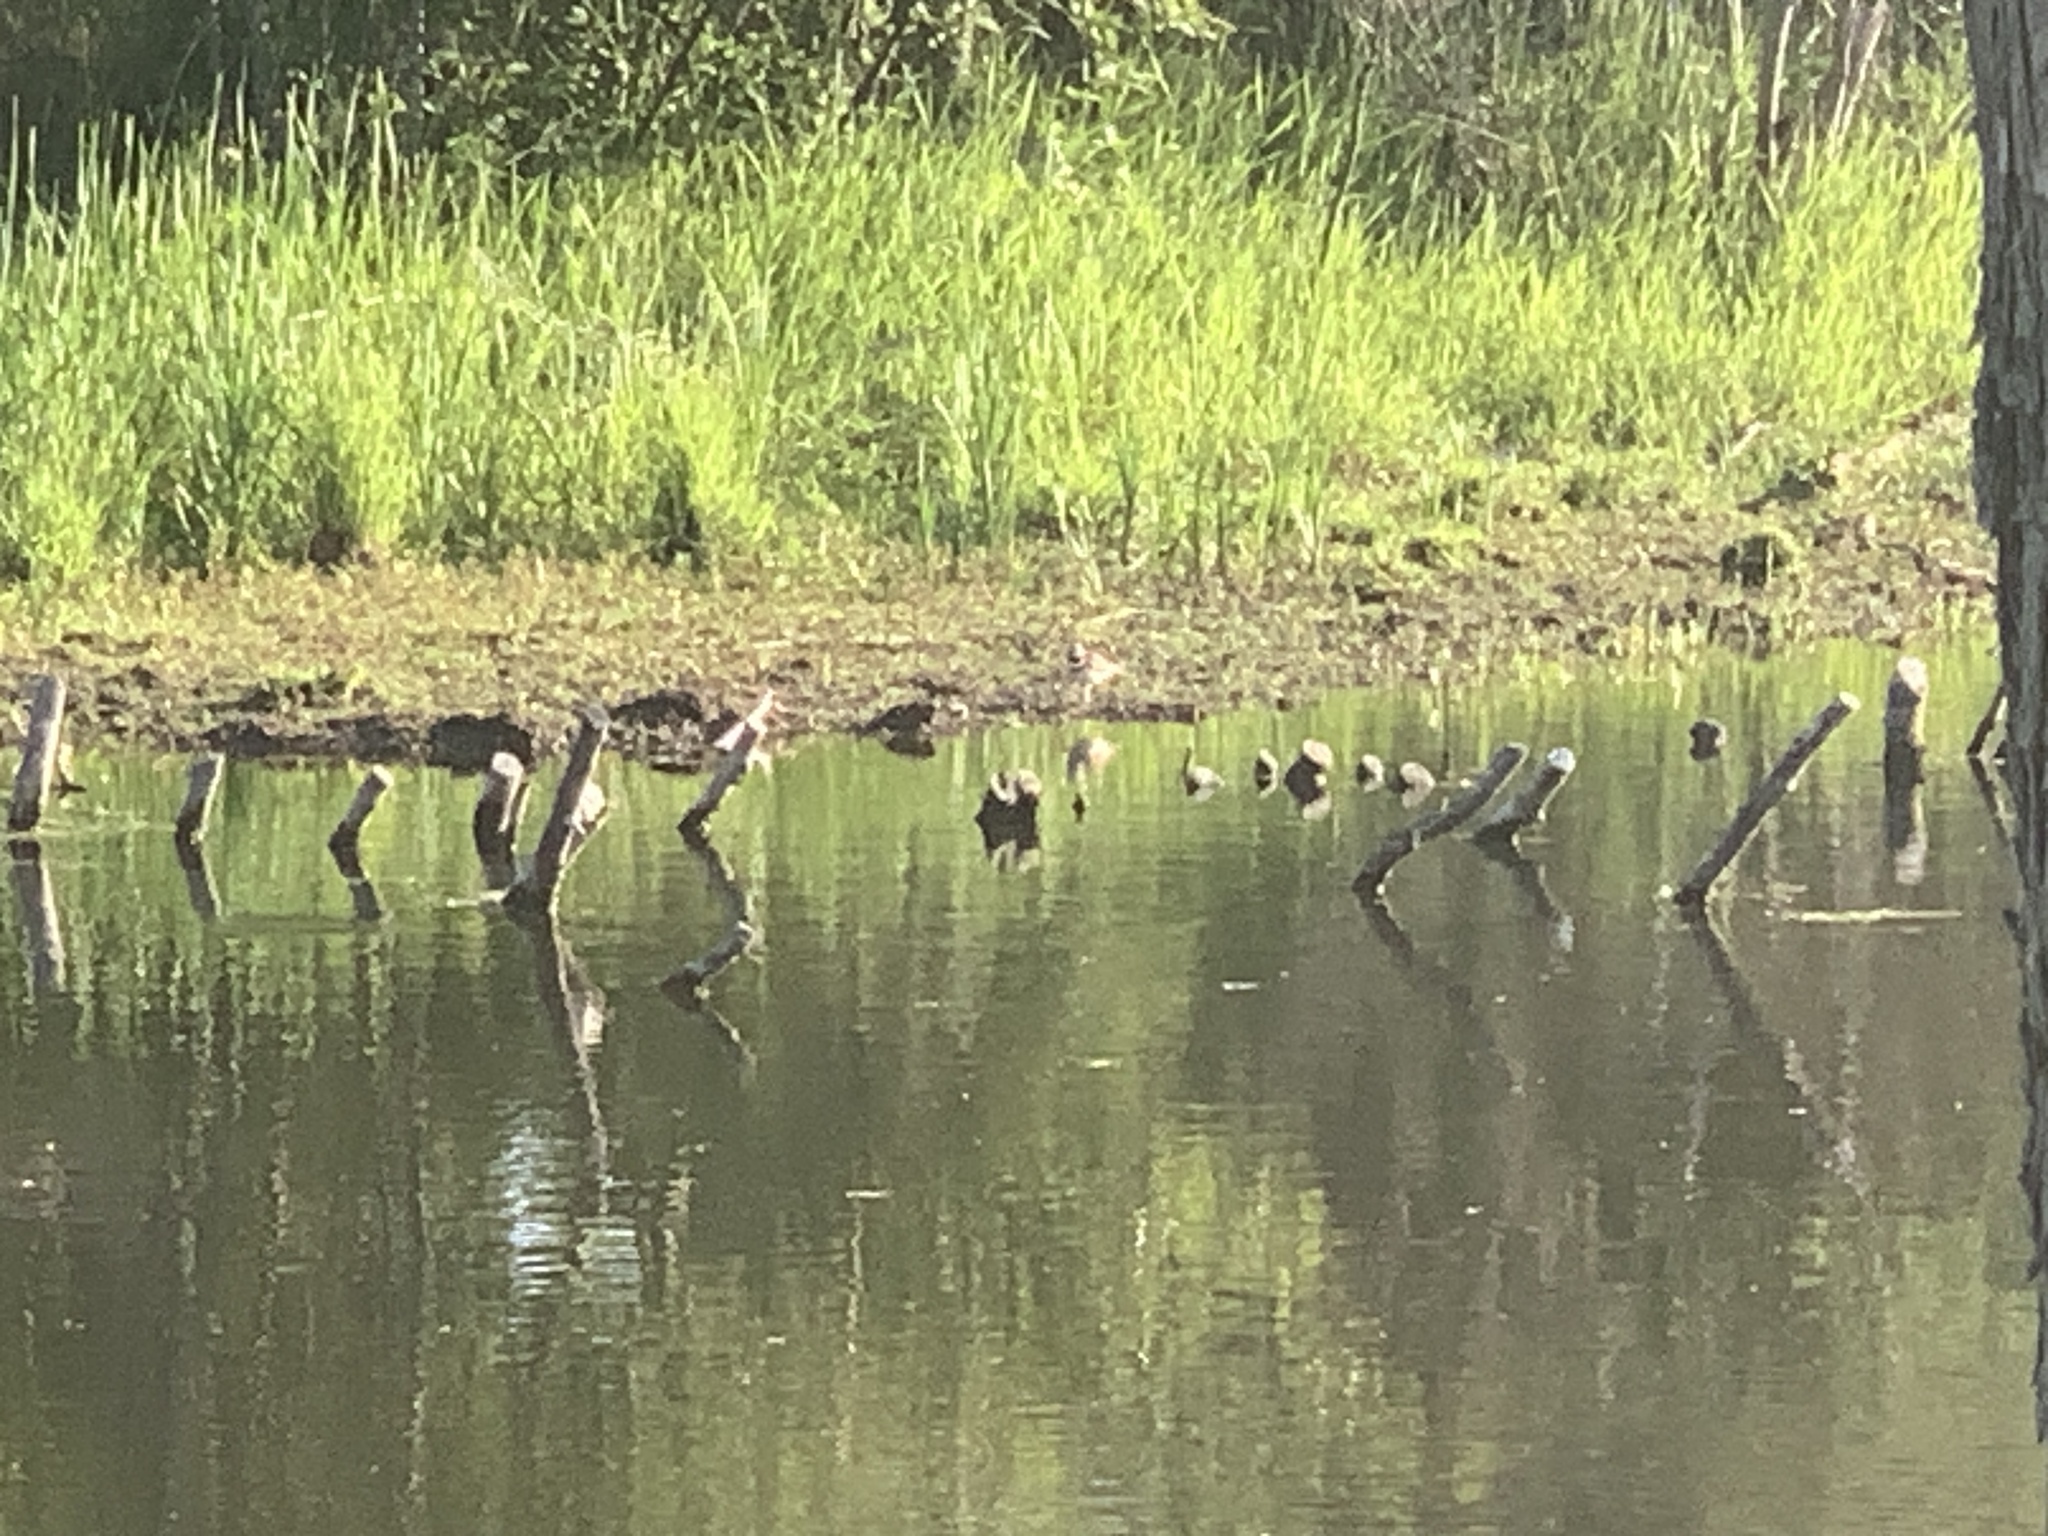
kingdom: Animalia
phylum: Chordata
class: Aves
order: Charadriiformes
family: Charadriidae
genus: Charadrius
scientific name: Charadrius vociferus
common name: Killdeer
